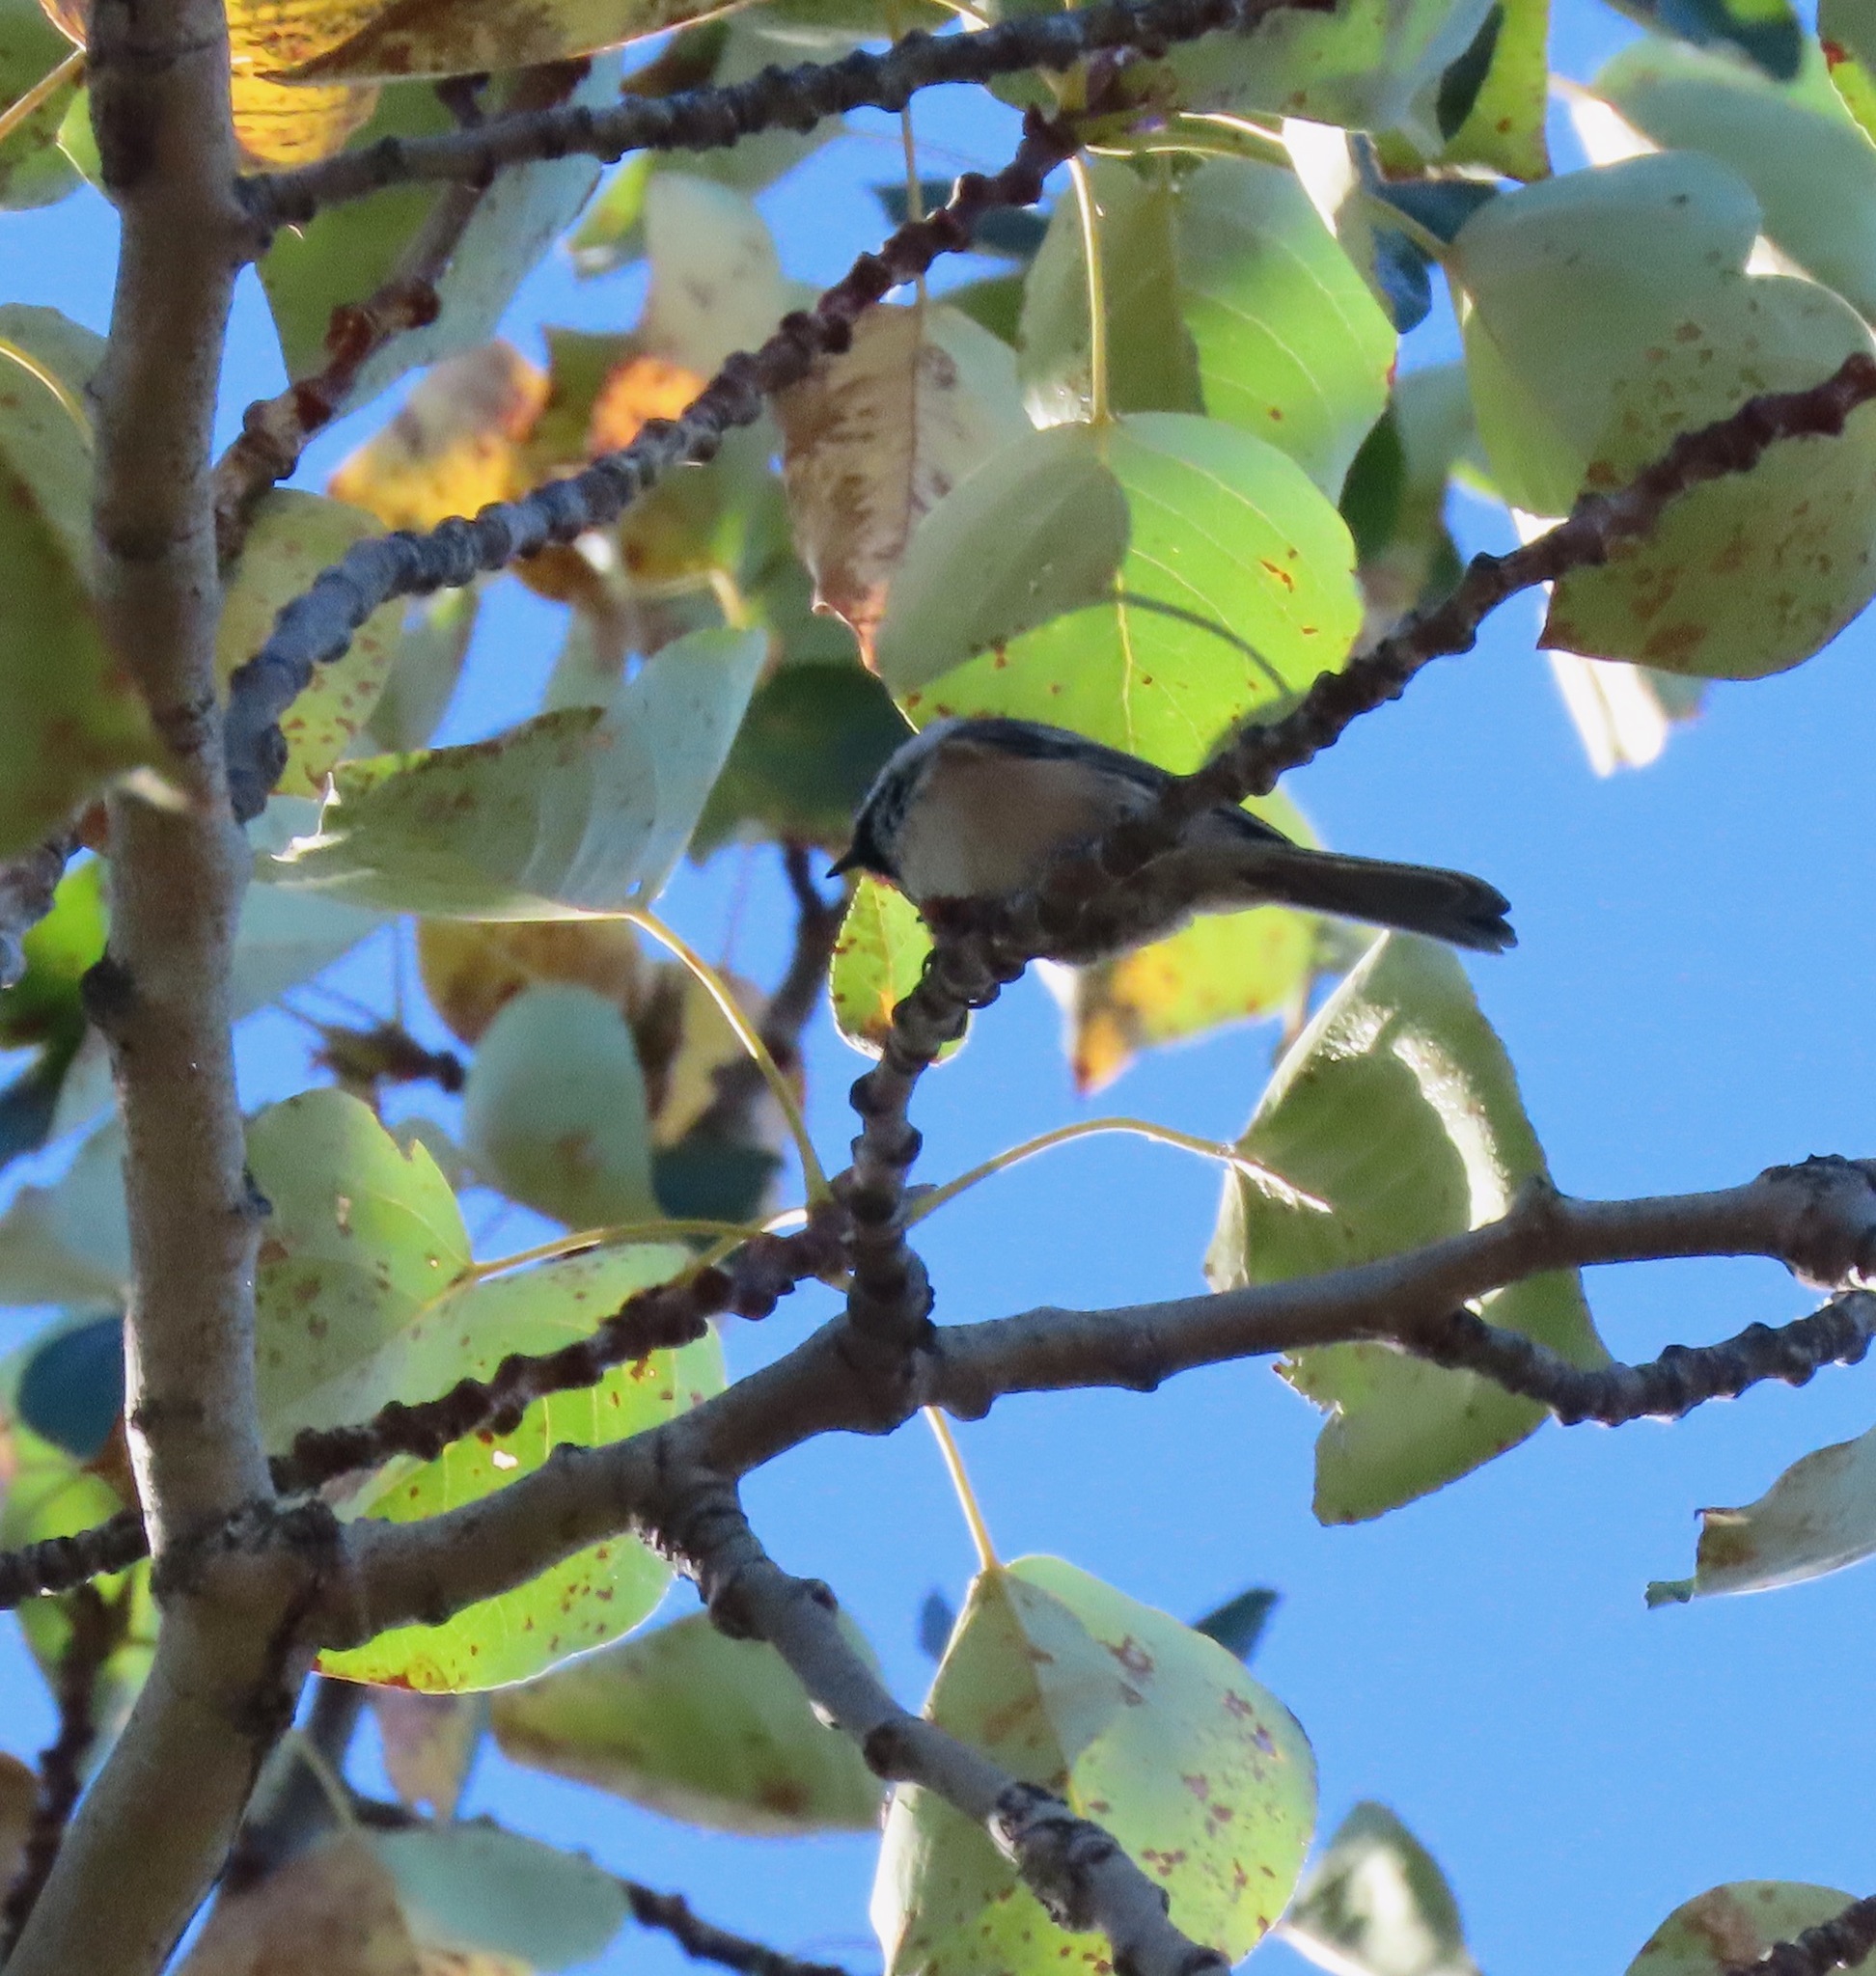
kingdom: Animalia
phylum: Chordata
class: Aves
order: Passeriformes
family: Paridae
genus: Poecile
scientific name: Poecile atricapillus
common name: Black-capped chickadee
